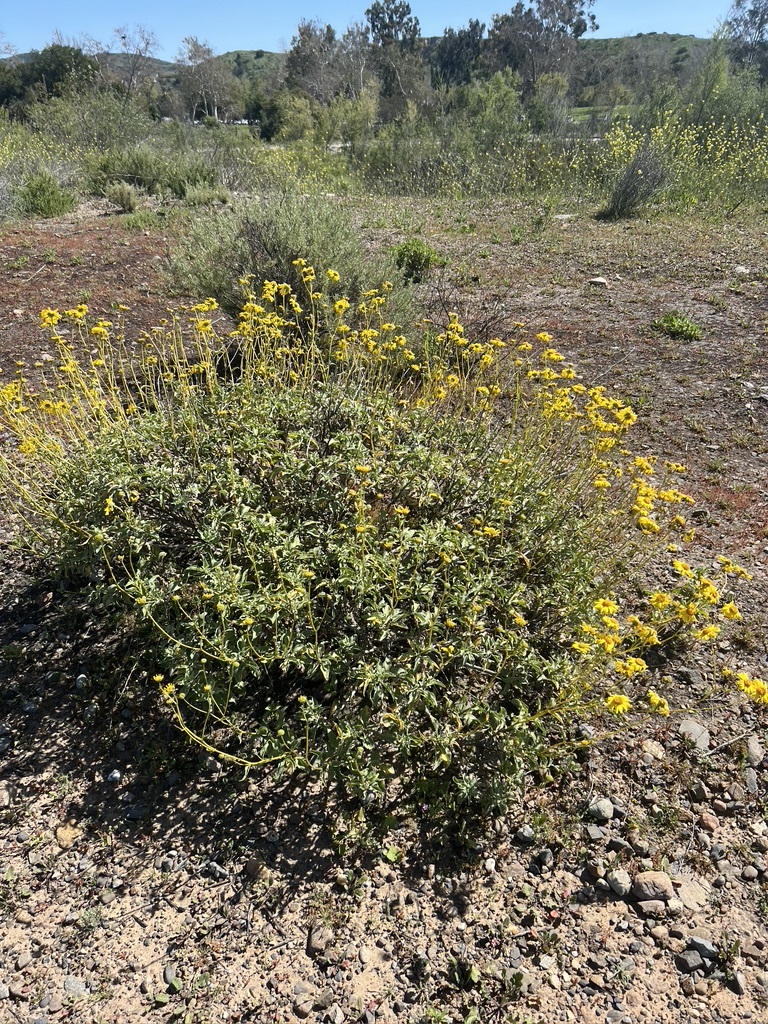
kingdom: Plantae
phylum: Tracheophyta
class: Magnoliopsida
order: Asterales
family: Asteraceae
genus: Encelia
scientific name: Encelia
